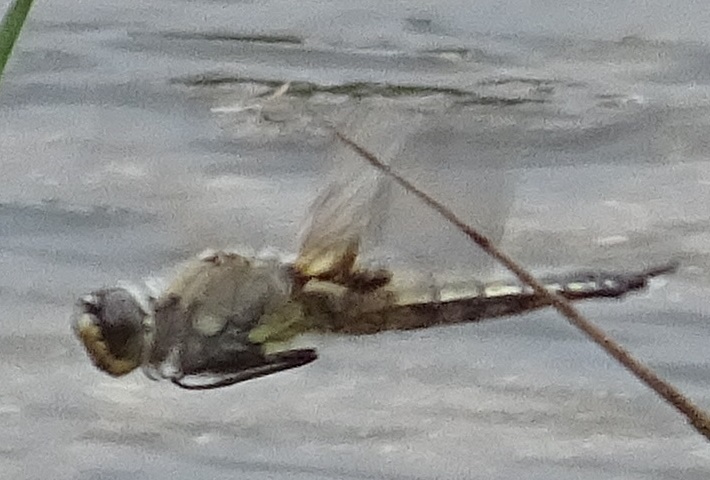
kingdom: Animalia
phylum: Arthropoda
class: Insecta
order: Odonata
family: Libellulidae
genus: Libellula
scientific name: Libellula quadrimaculata
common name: Four-spotted chaser
